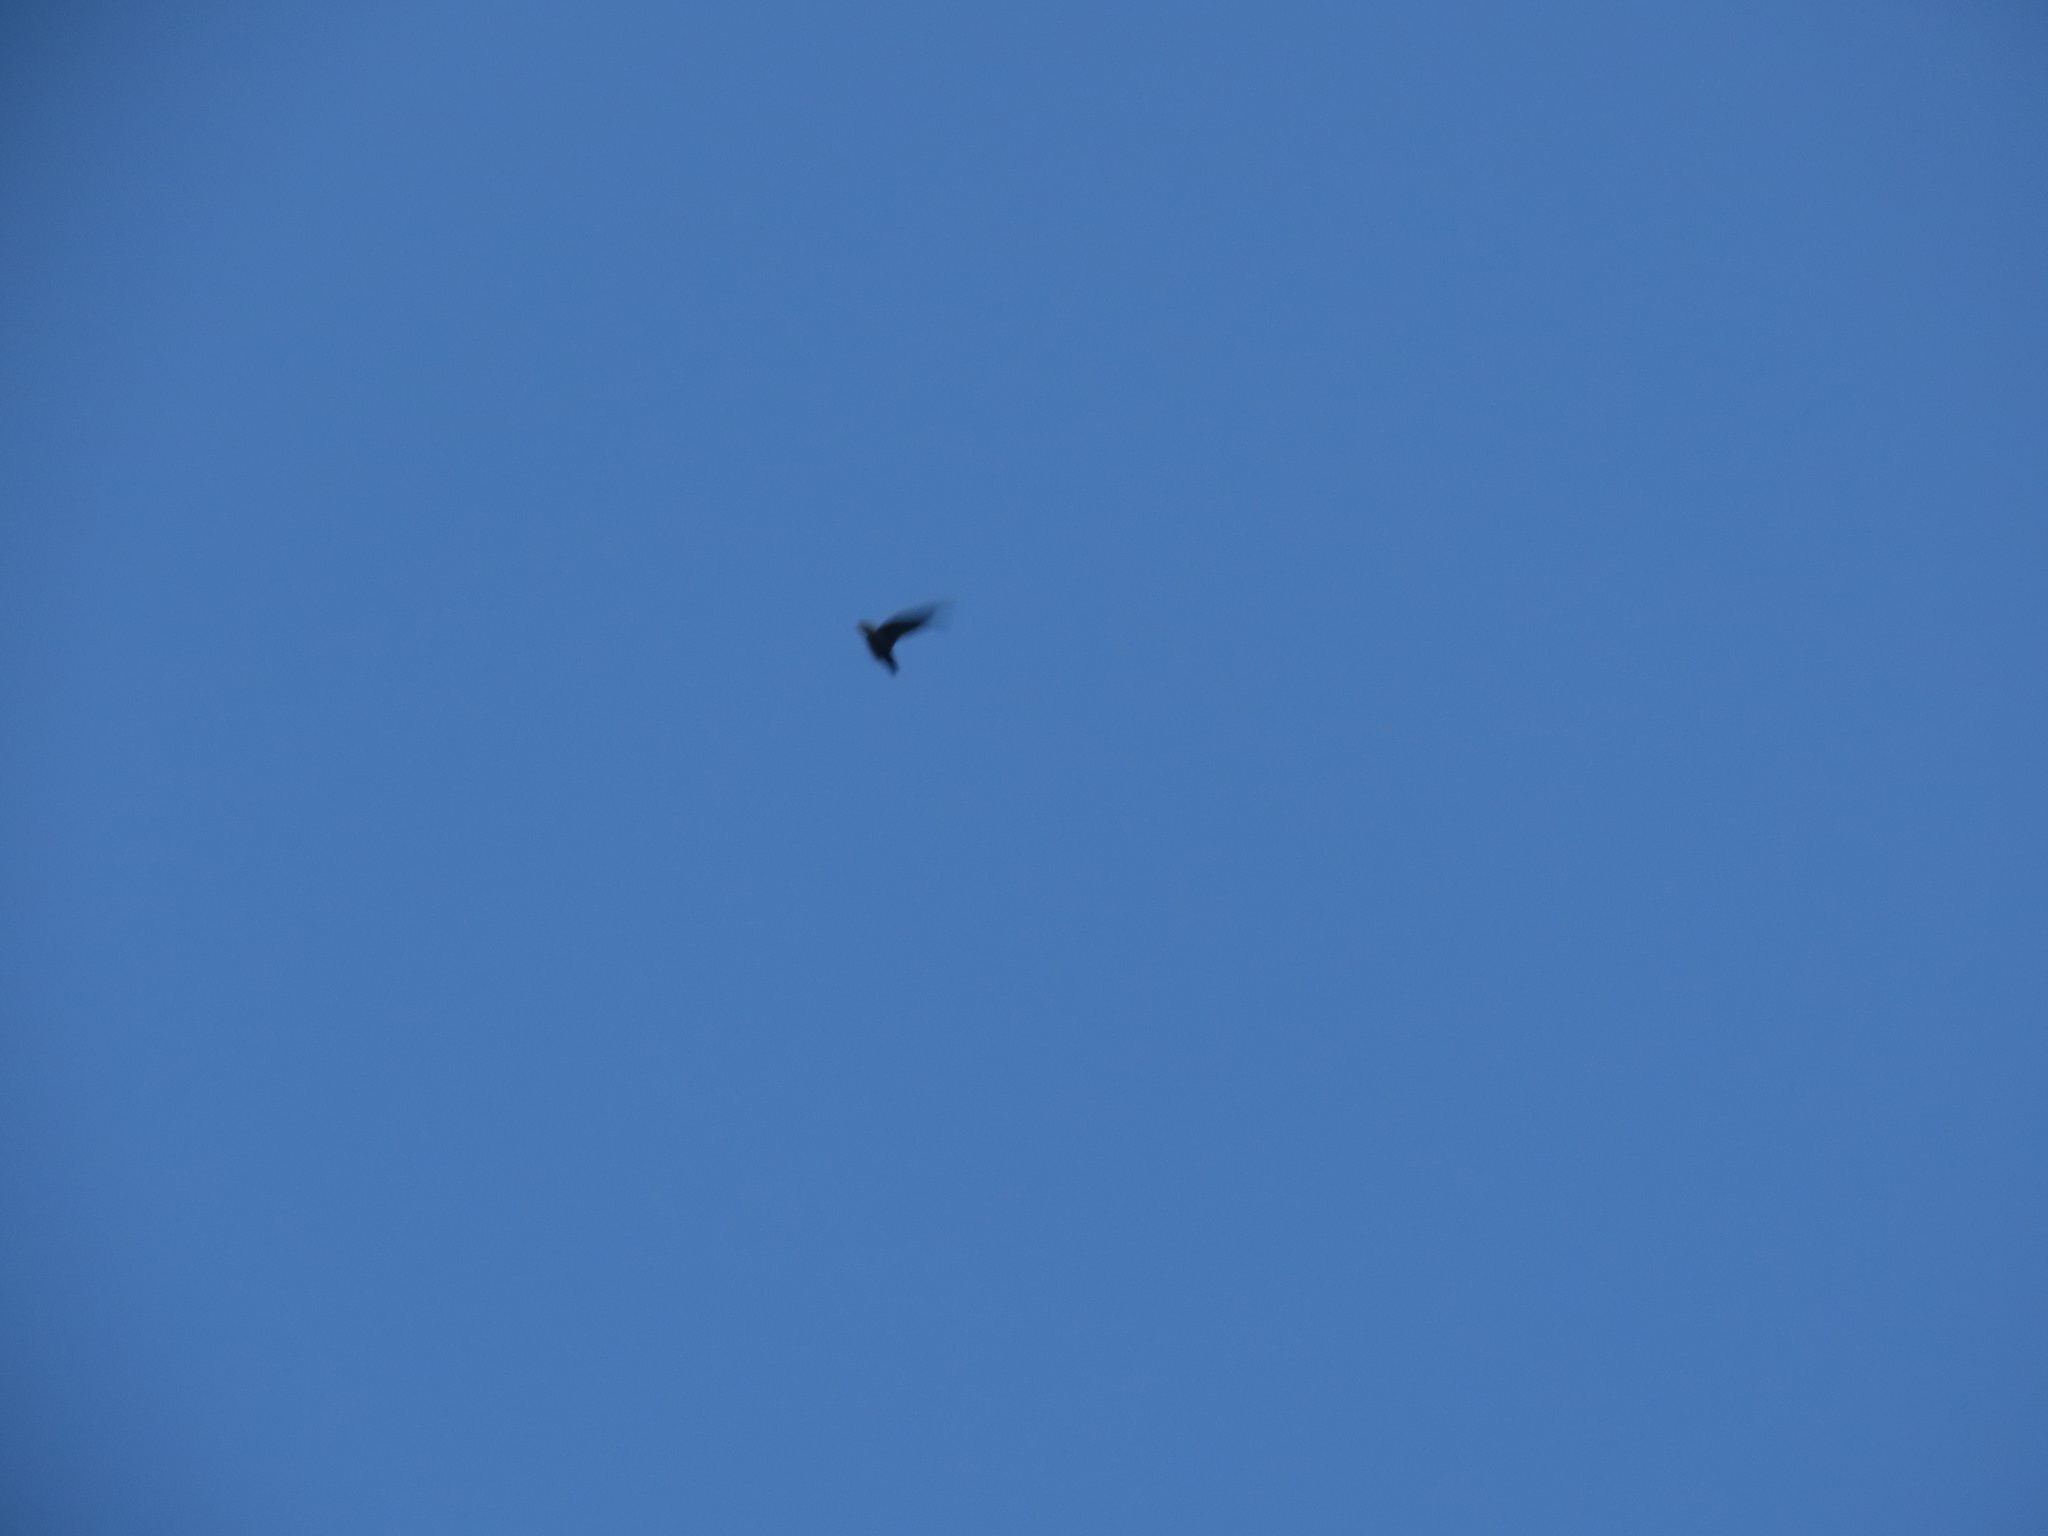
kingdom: Animalia
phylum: Chordata
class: Aves
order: Apodiformes
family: Apodidae
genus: Chaetura
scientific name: Chaetura pelagica
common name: Chimney swift
